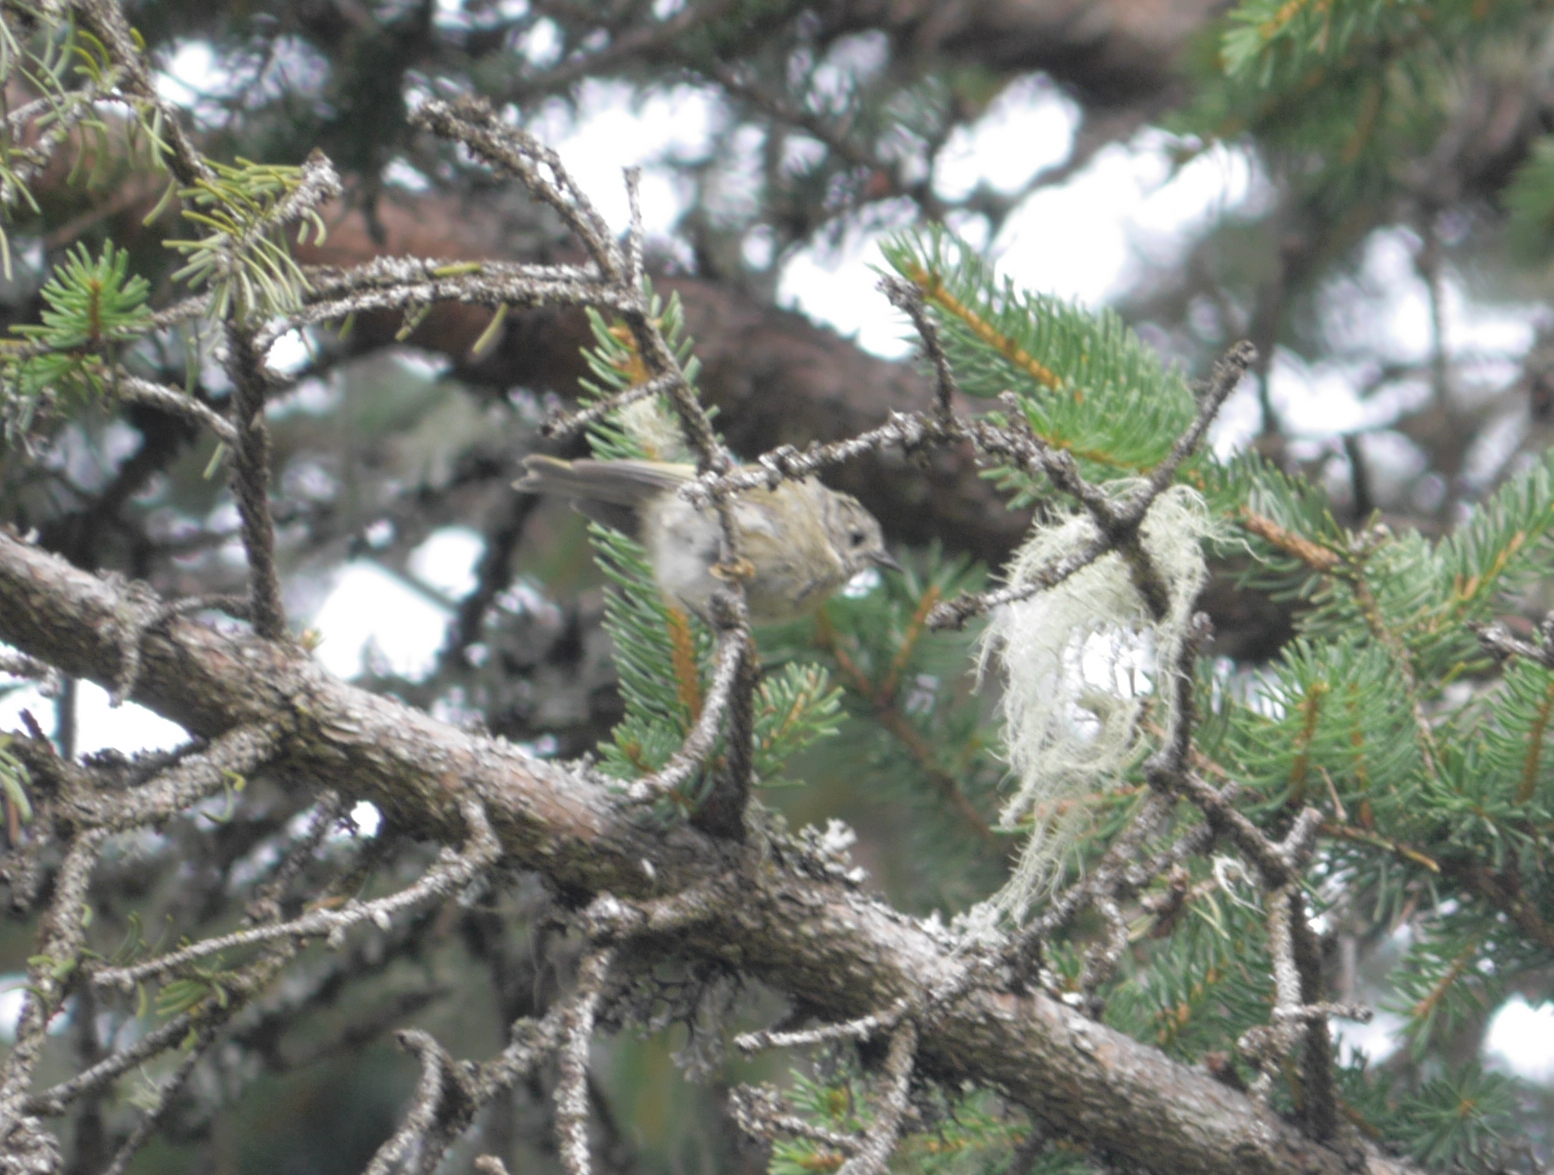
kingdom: Animalia
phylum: Chordata
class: Aves
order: Passeriformes
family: Regulidae
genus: Regulus
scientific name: Regulus regulus
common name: Goldcrest
